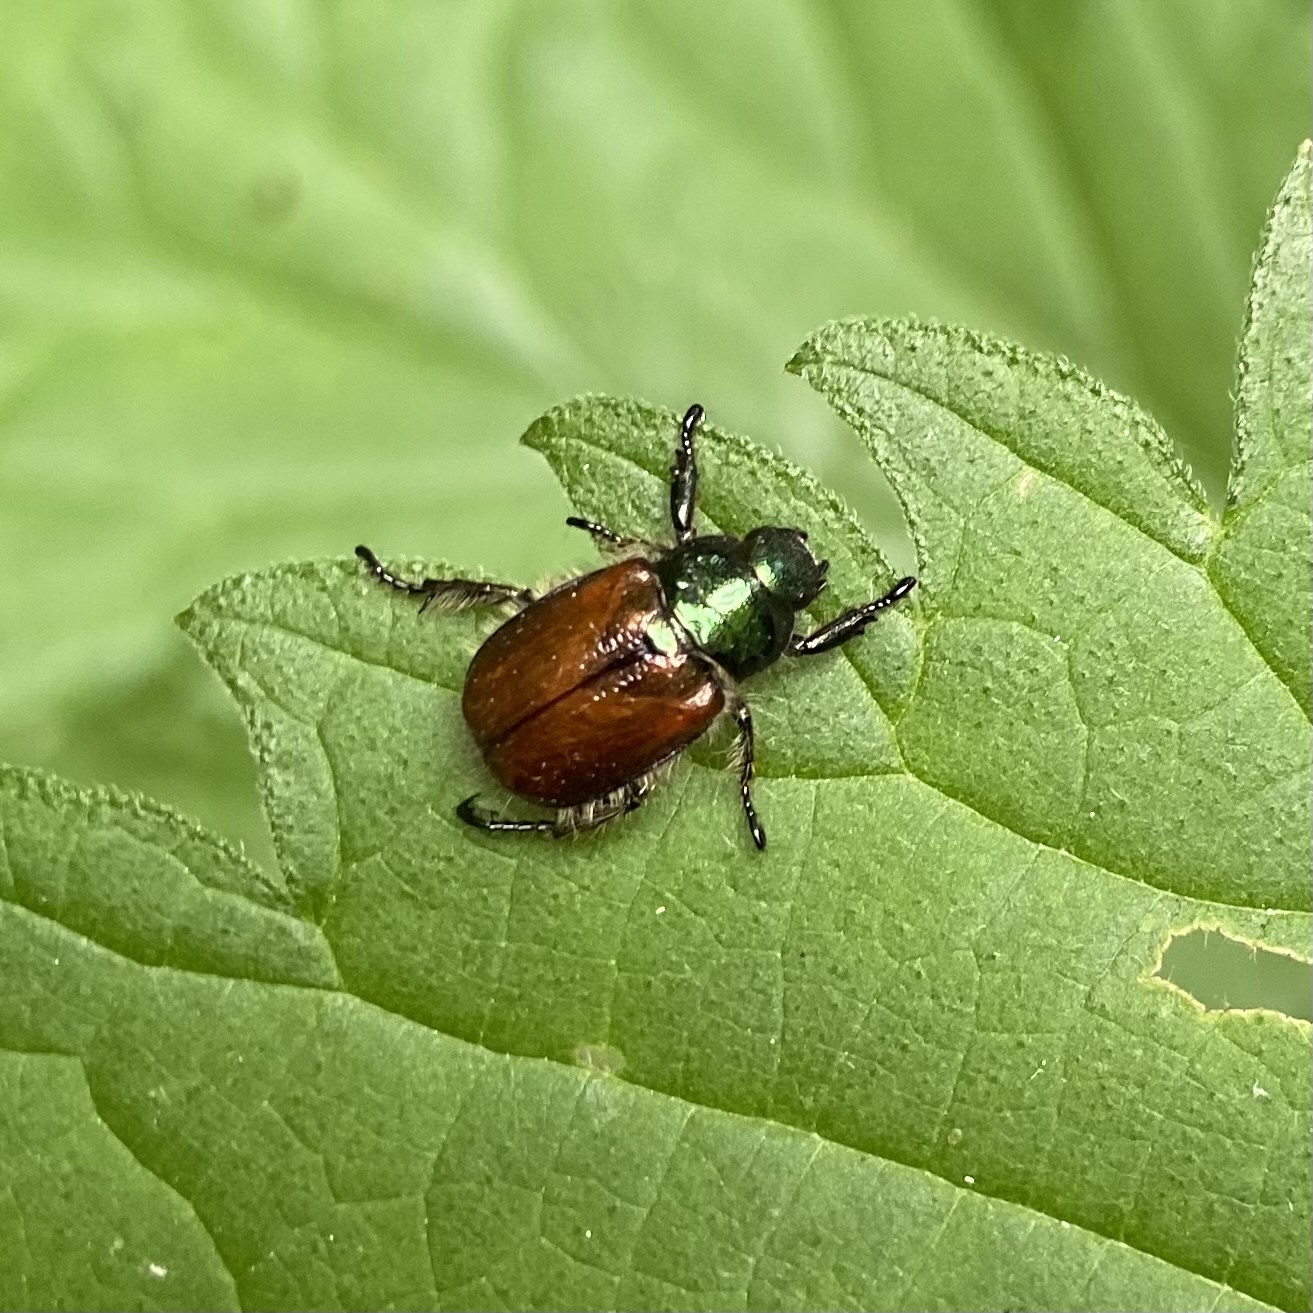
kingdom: Animalia
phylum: Arthropoda
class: Insecta
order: Coleoptera
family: Scarabaeidae
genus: Phyllopertha
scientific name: Phyllopertha horticola
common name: Garden chafer
